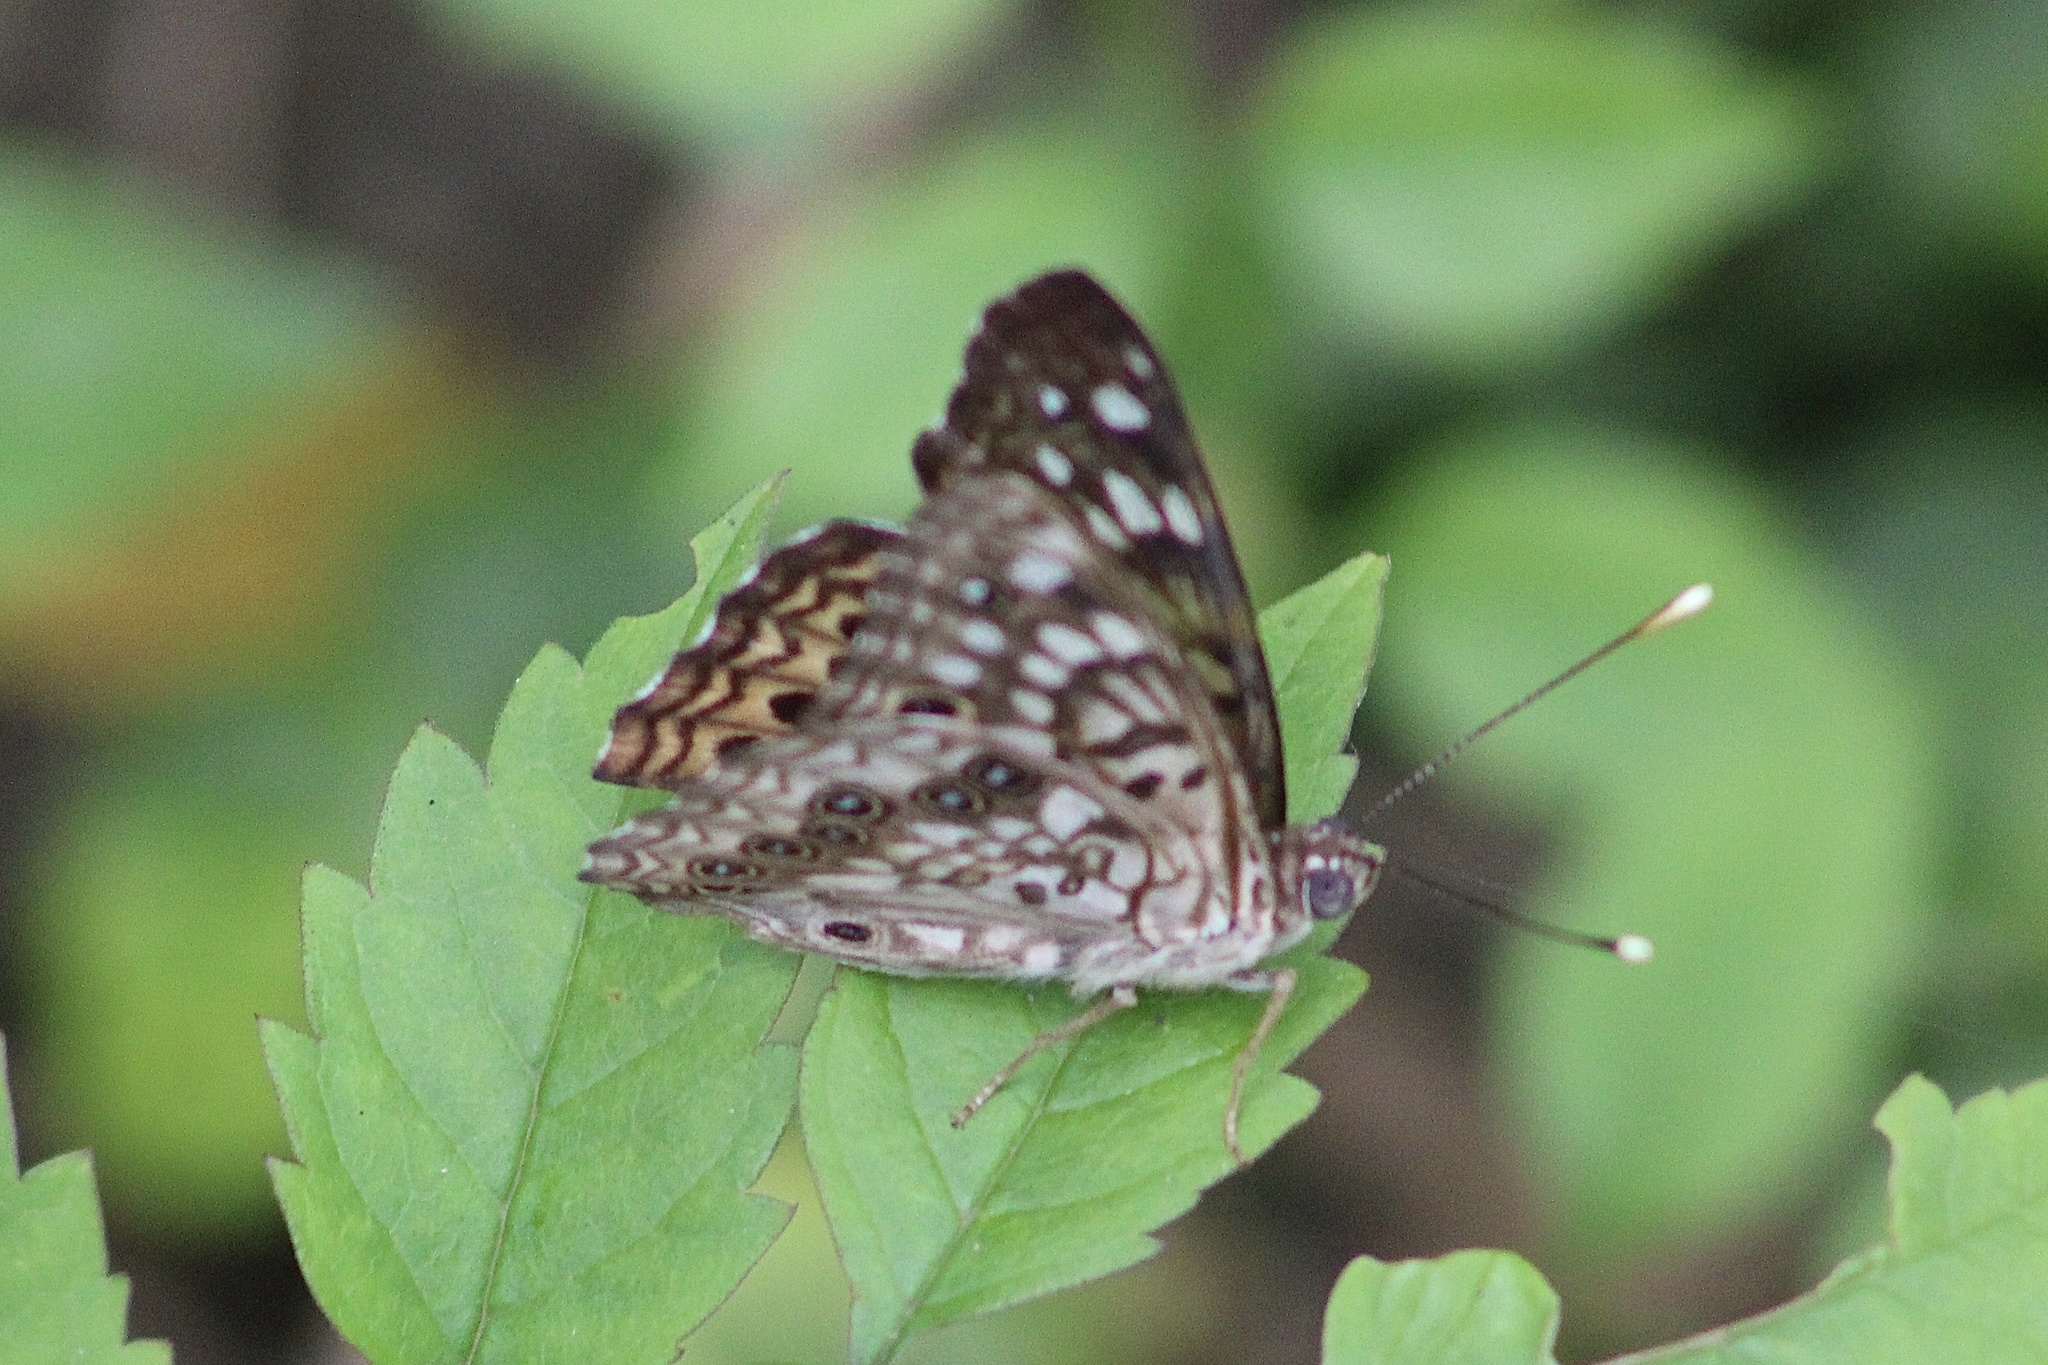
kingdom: Animalia
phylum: Arthropoda
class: Insecta
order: Lepidoptera
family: Nymphalidae
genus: Asterocampa
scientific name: Asterocampa celtis
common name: Hackberry emperor
